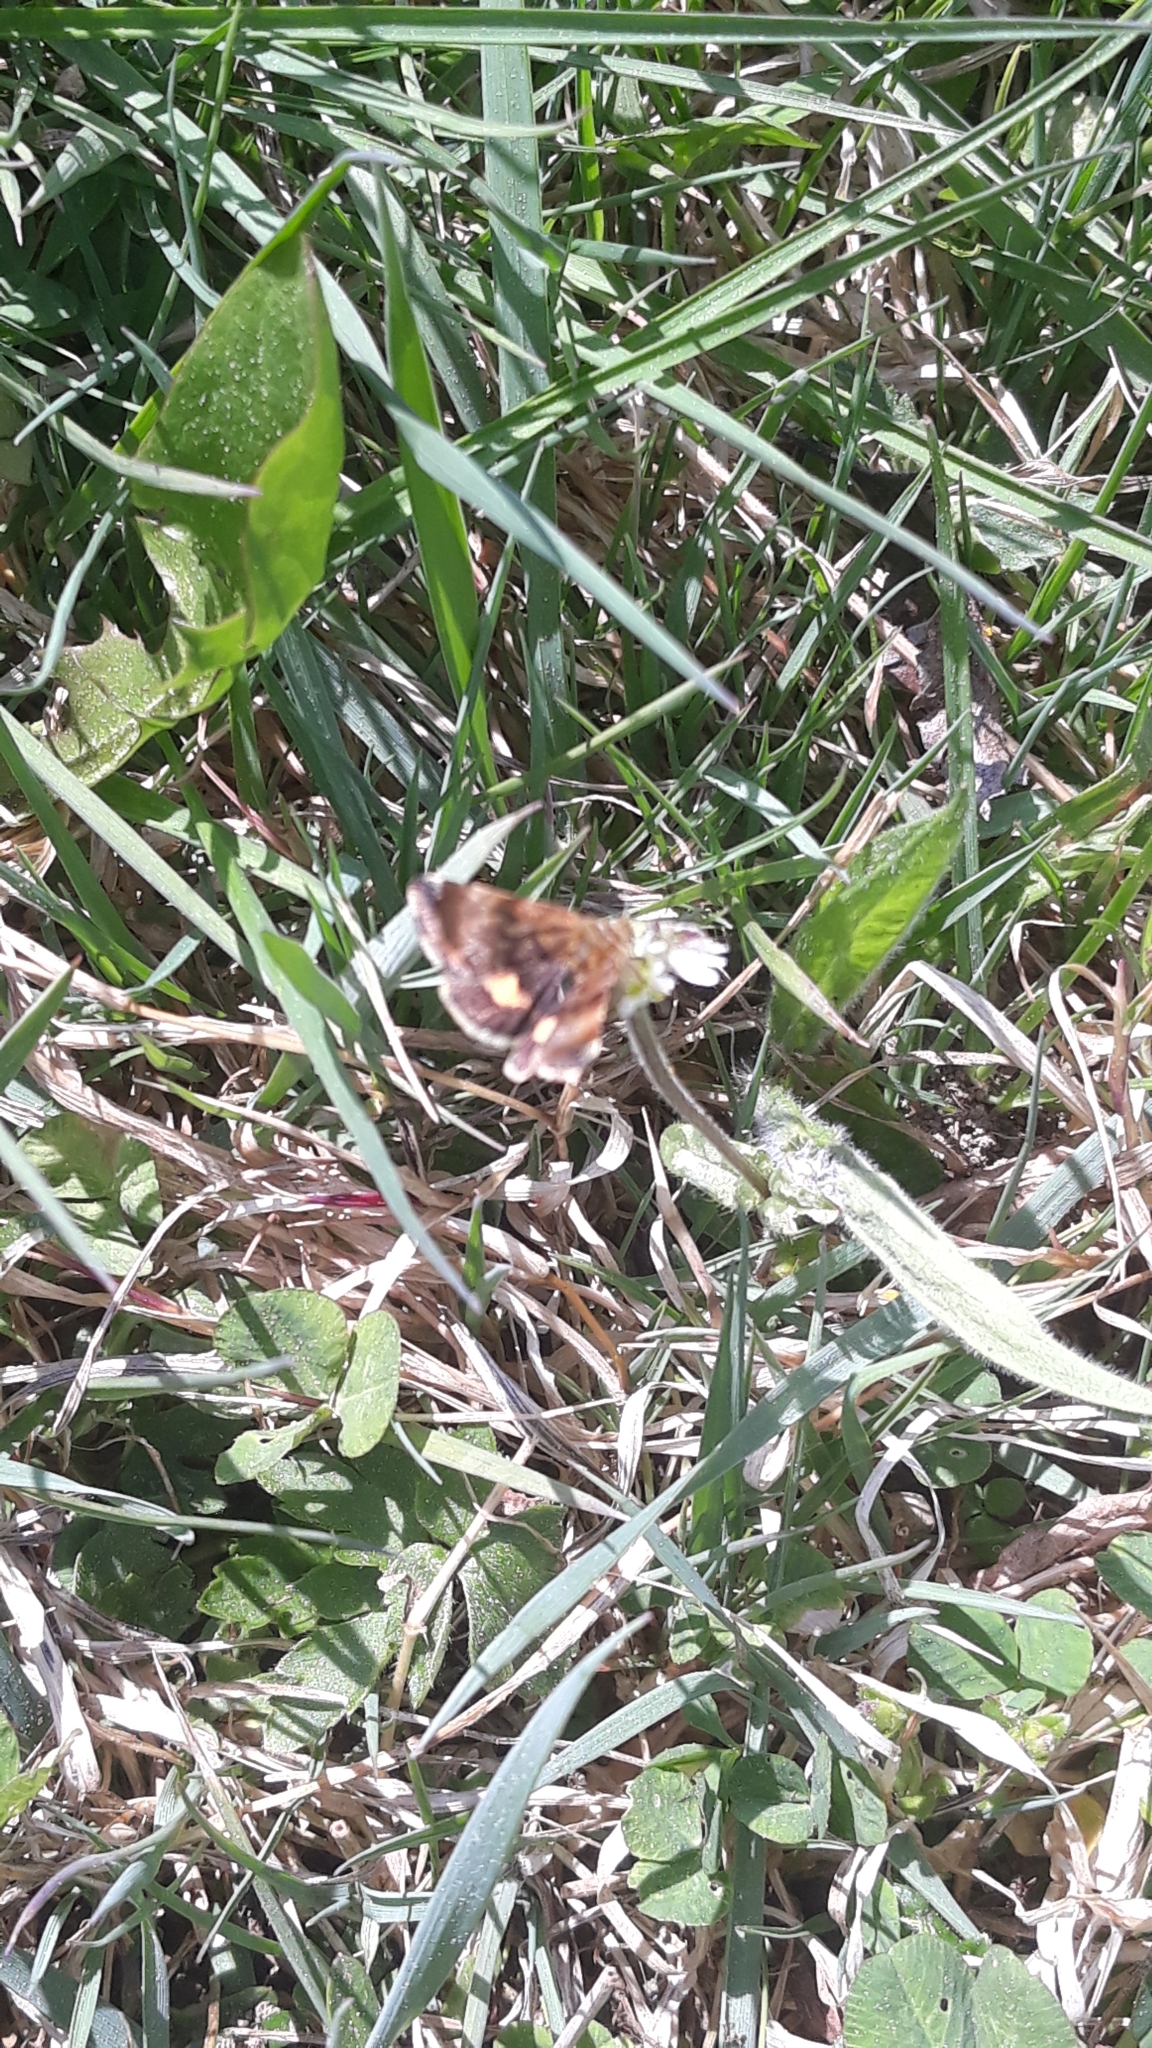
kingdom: Animalia
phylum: Arthropoda
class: Insecta
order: Lepidoptera
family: Noctuidae
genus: Panemeria
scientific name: Panemeria tenebrata
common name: Small yellow underwing
